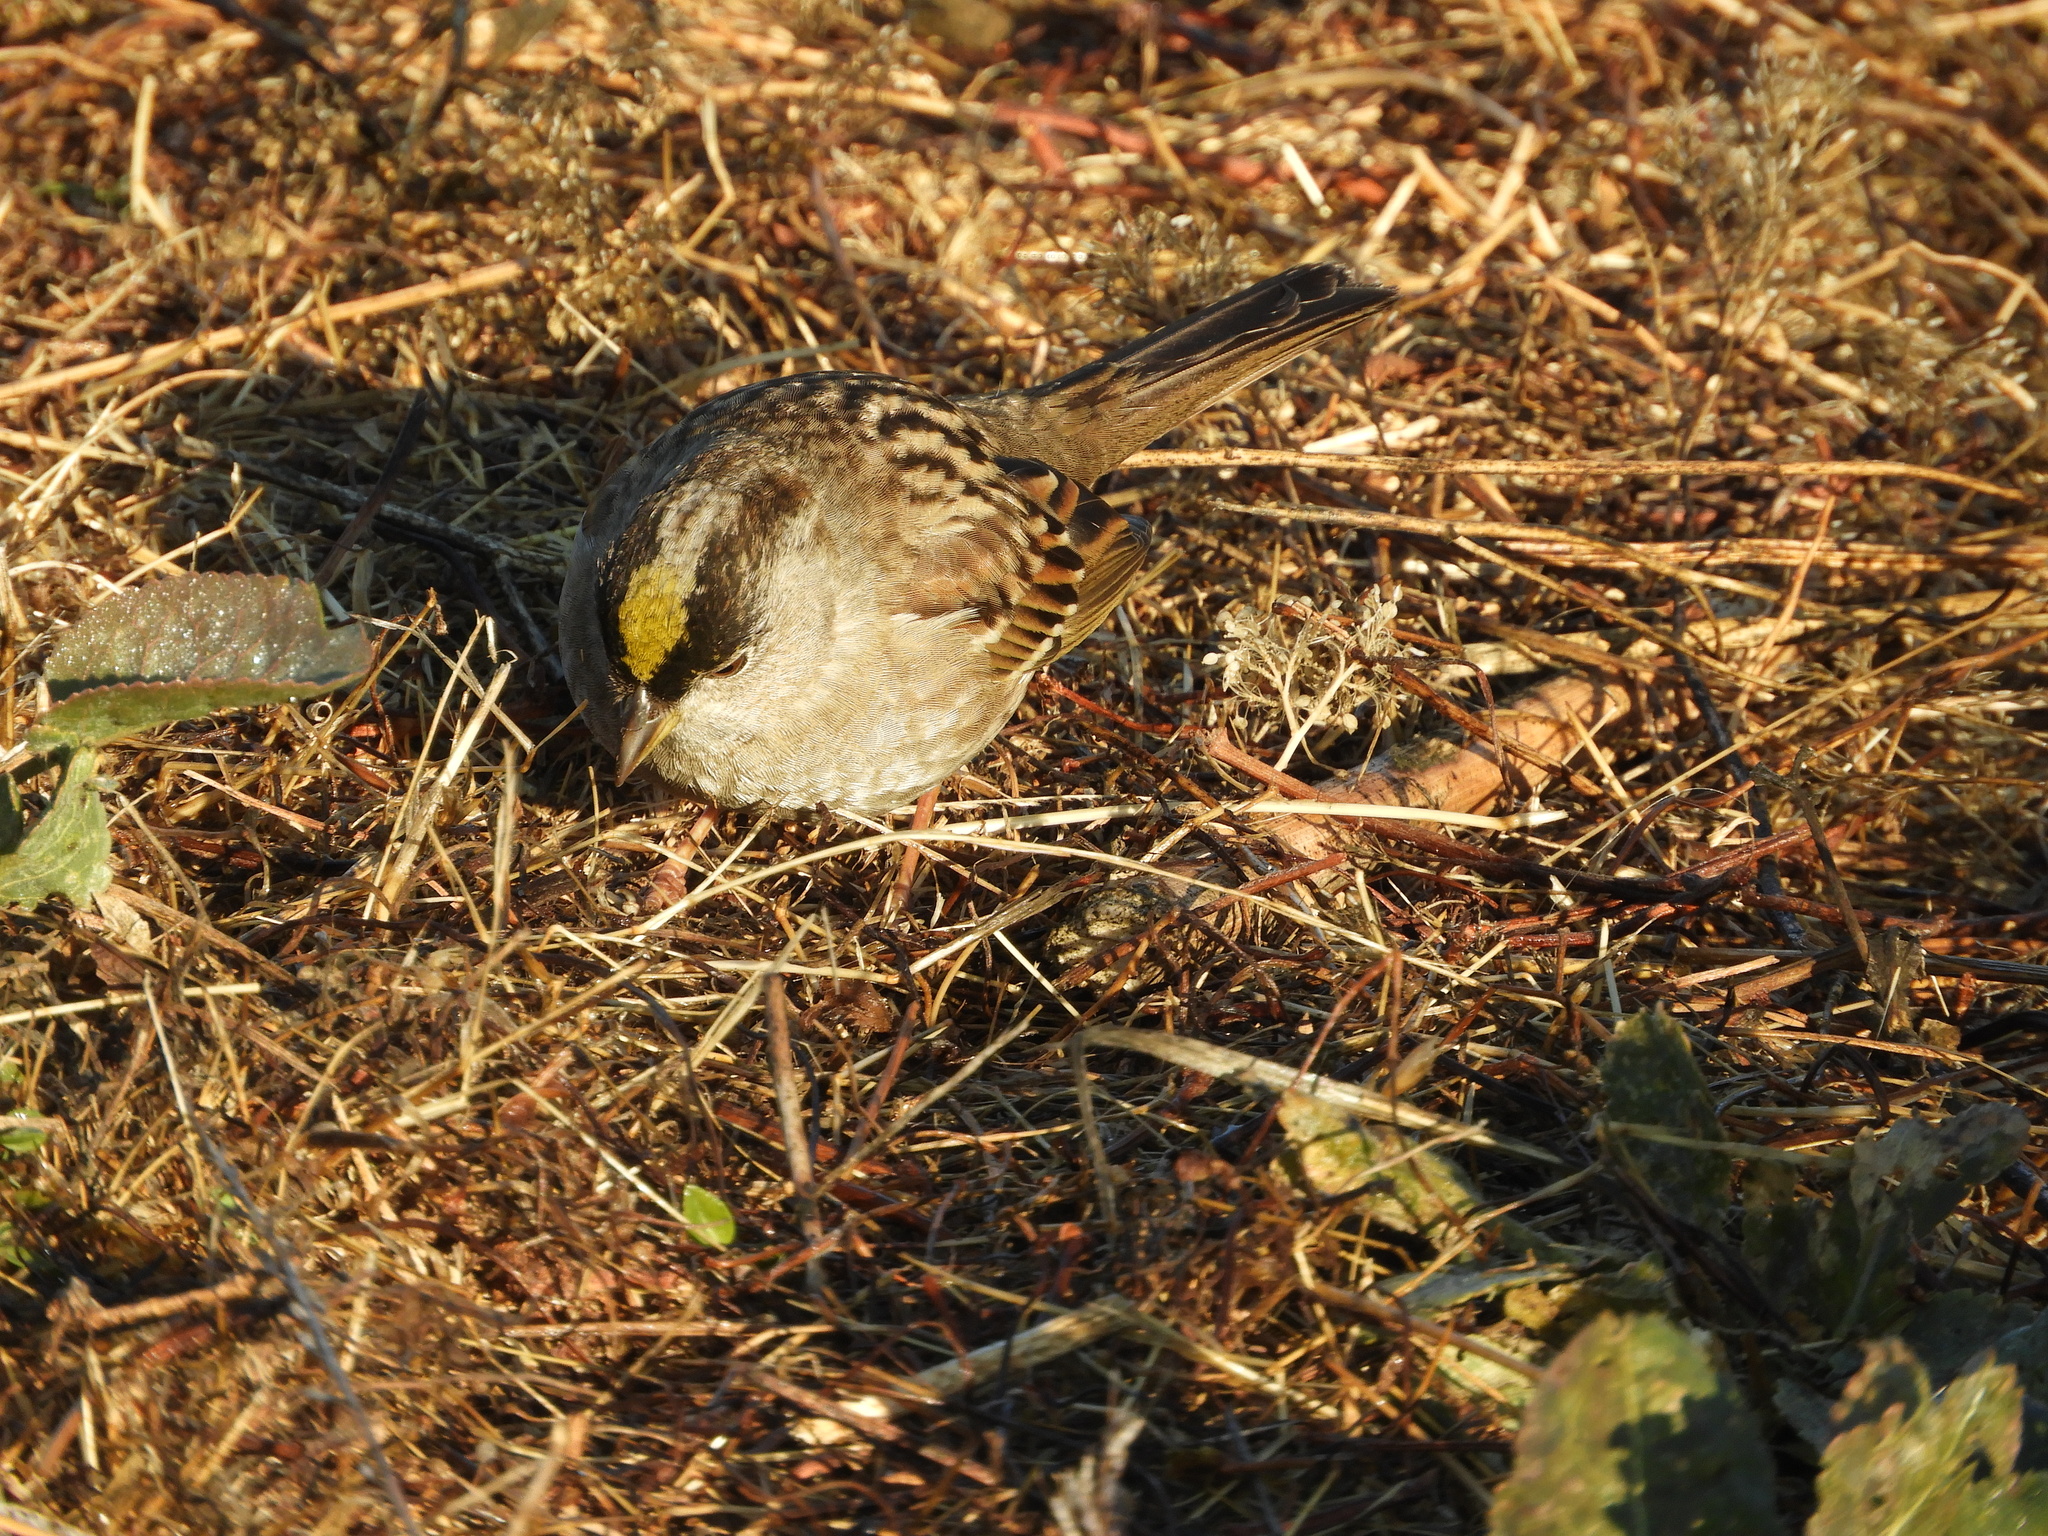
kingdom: Animalia
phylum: Chordata
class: Aves
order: Passeriformes
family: Passerellidae
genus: Zonotrichia
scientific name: Zonotrichia atricapilla
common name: Golden-crowned sparrow
